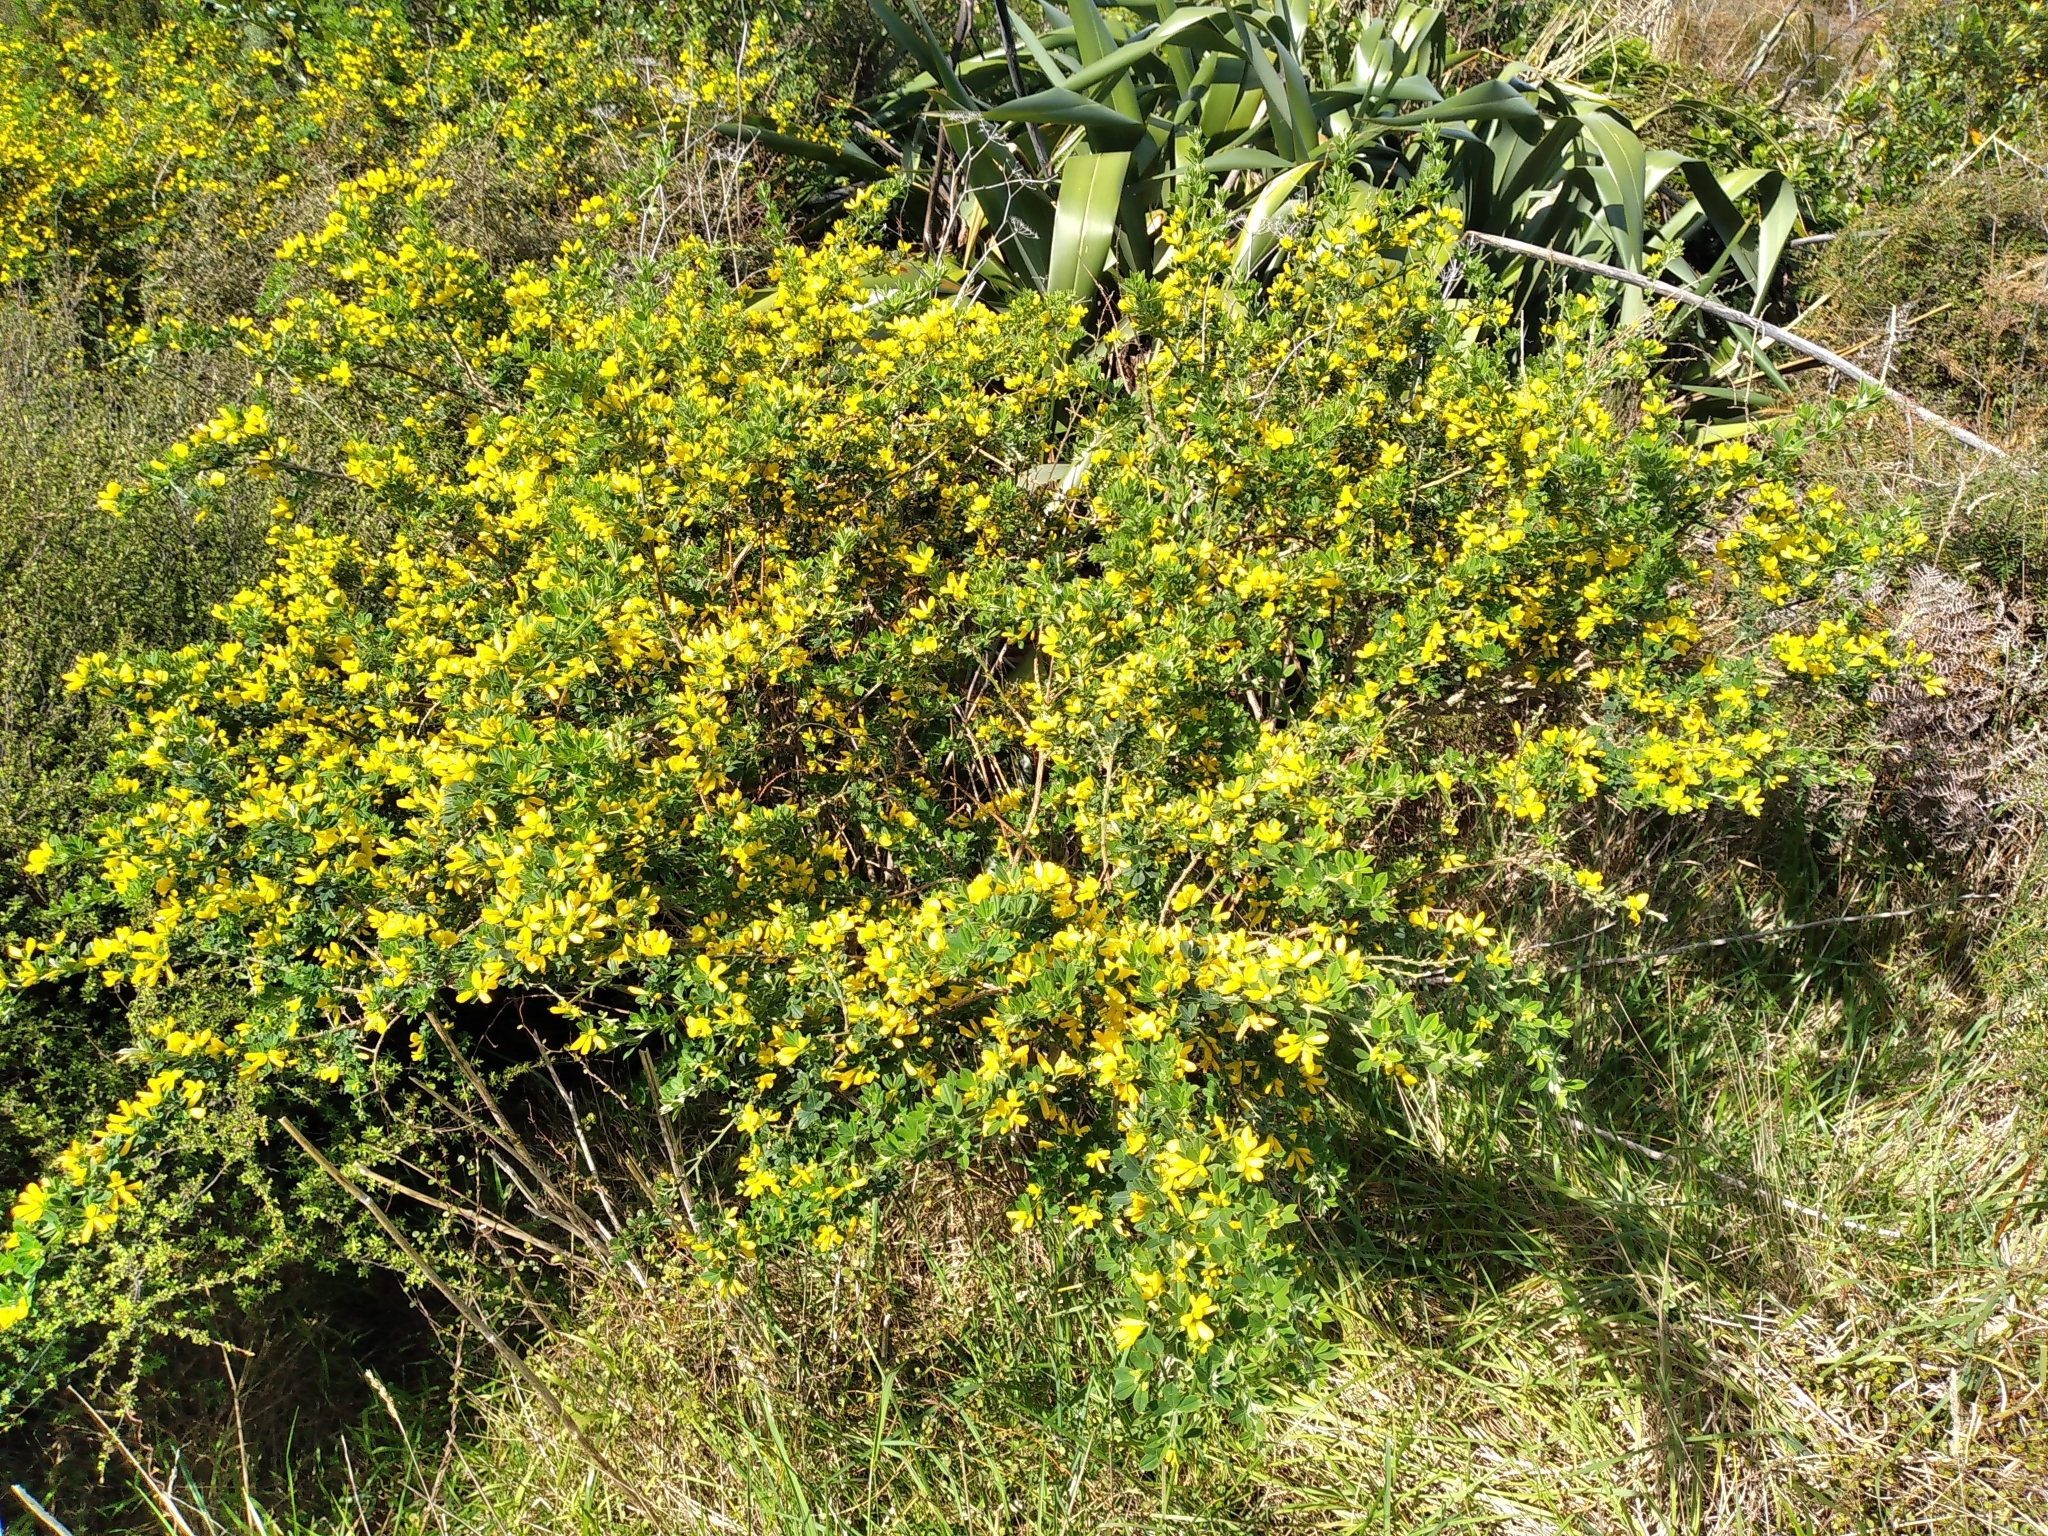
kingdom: Plantae
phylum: Tracheophyta
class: Magnoliopsida
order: Fabales
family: Fabaceae
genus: Genista
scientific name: Genista monspessulana
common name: Montpellier broom
